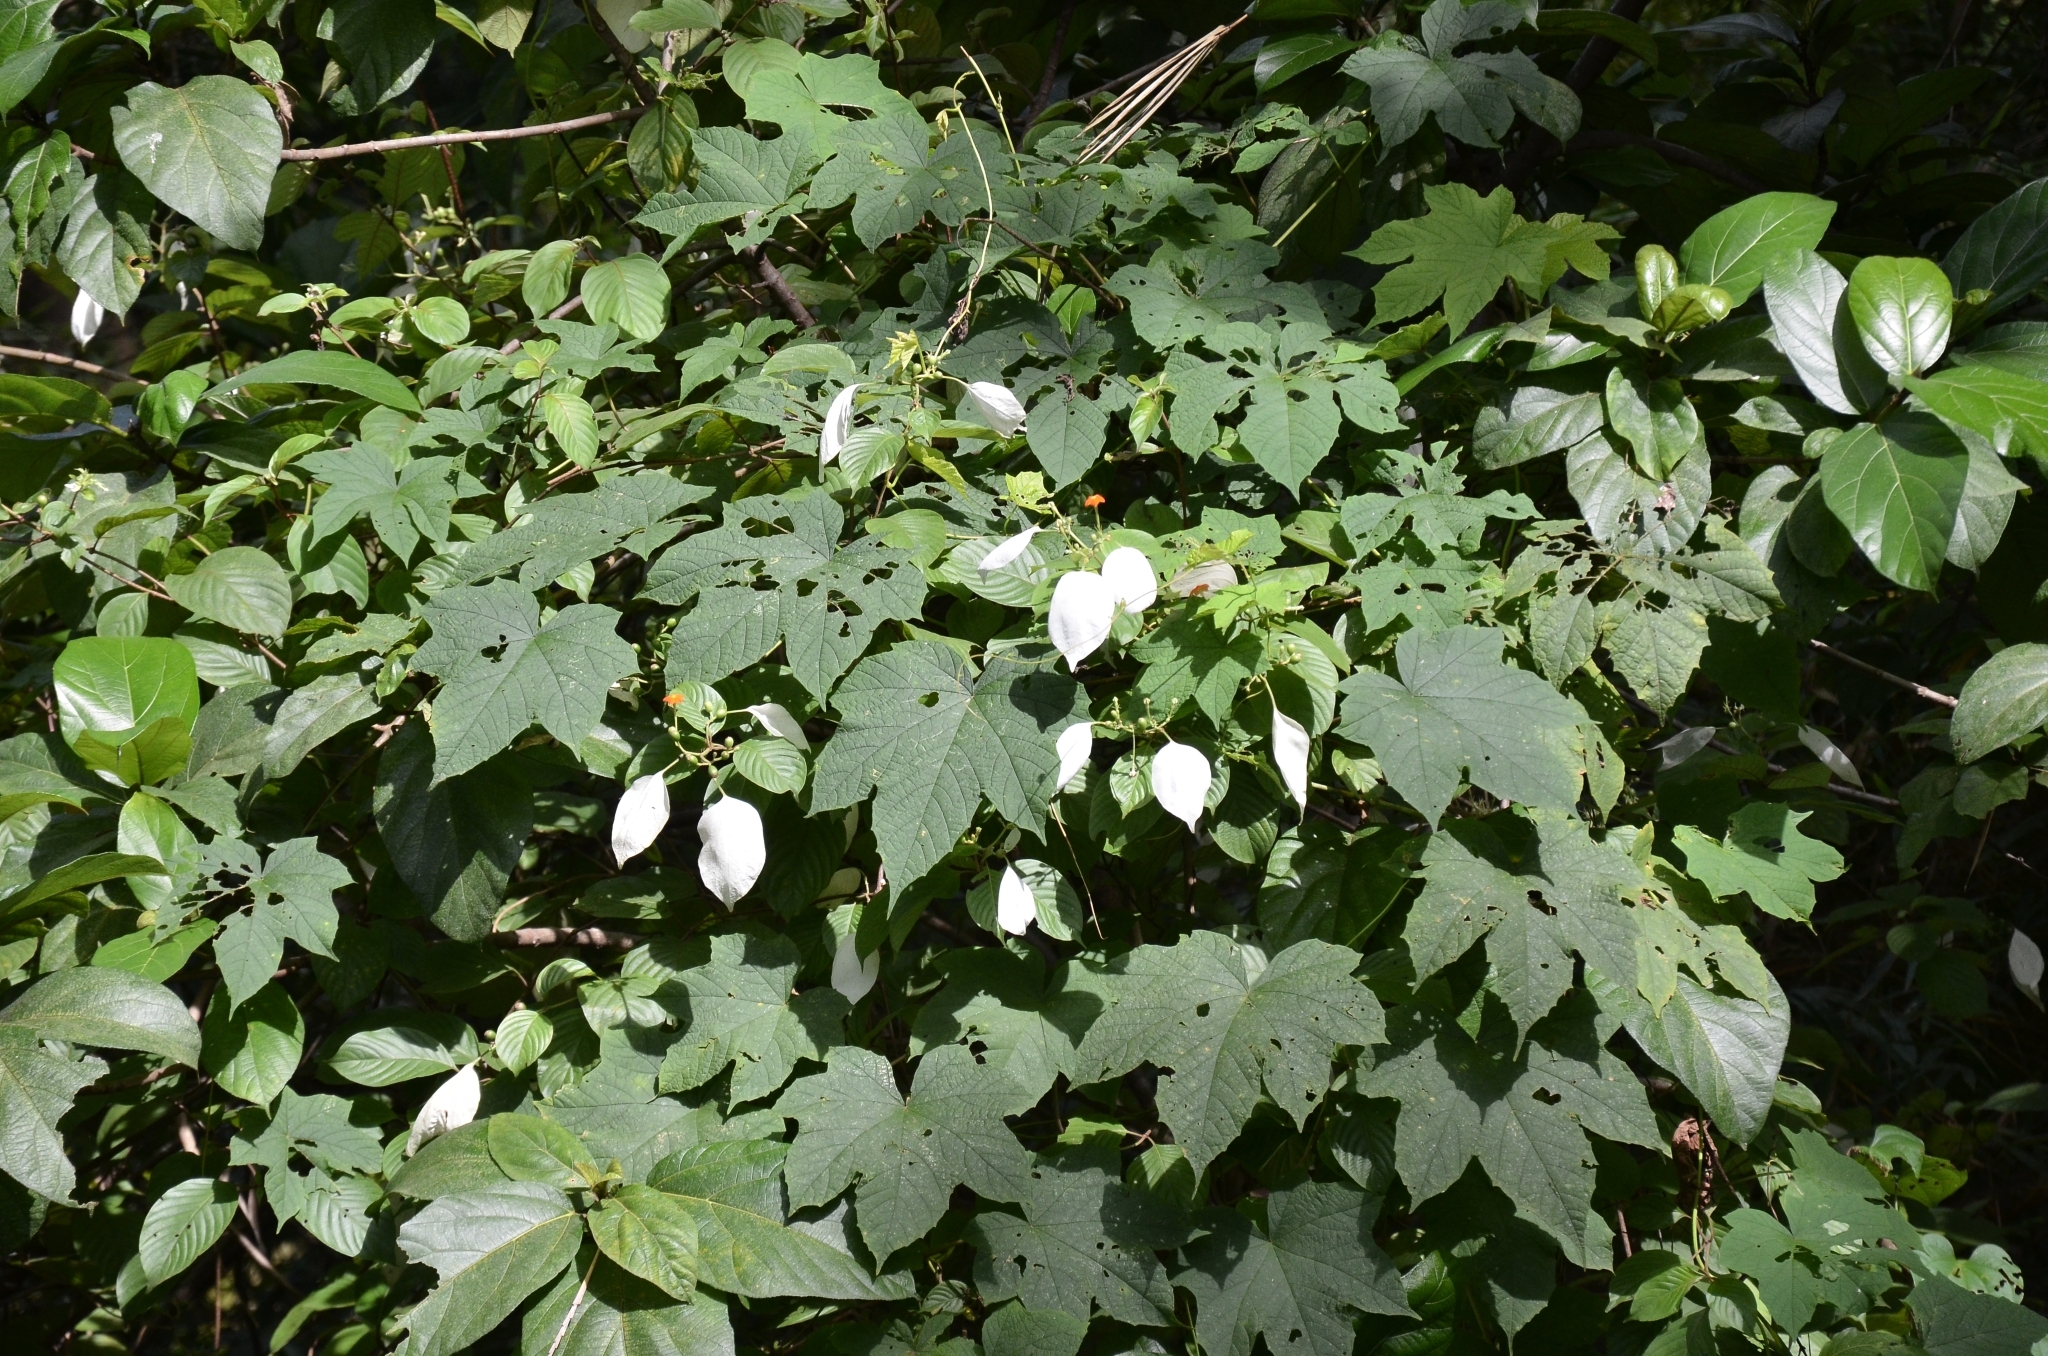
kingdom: Plantae
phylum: Tracheophyta
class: Magnoliopsida
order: Gentianales
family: Rubiaceae
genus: Mussaenda
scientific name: Mussaenda frondosa
